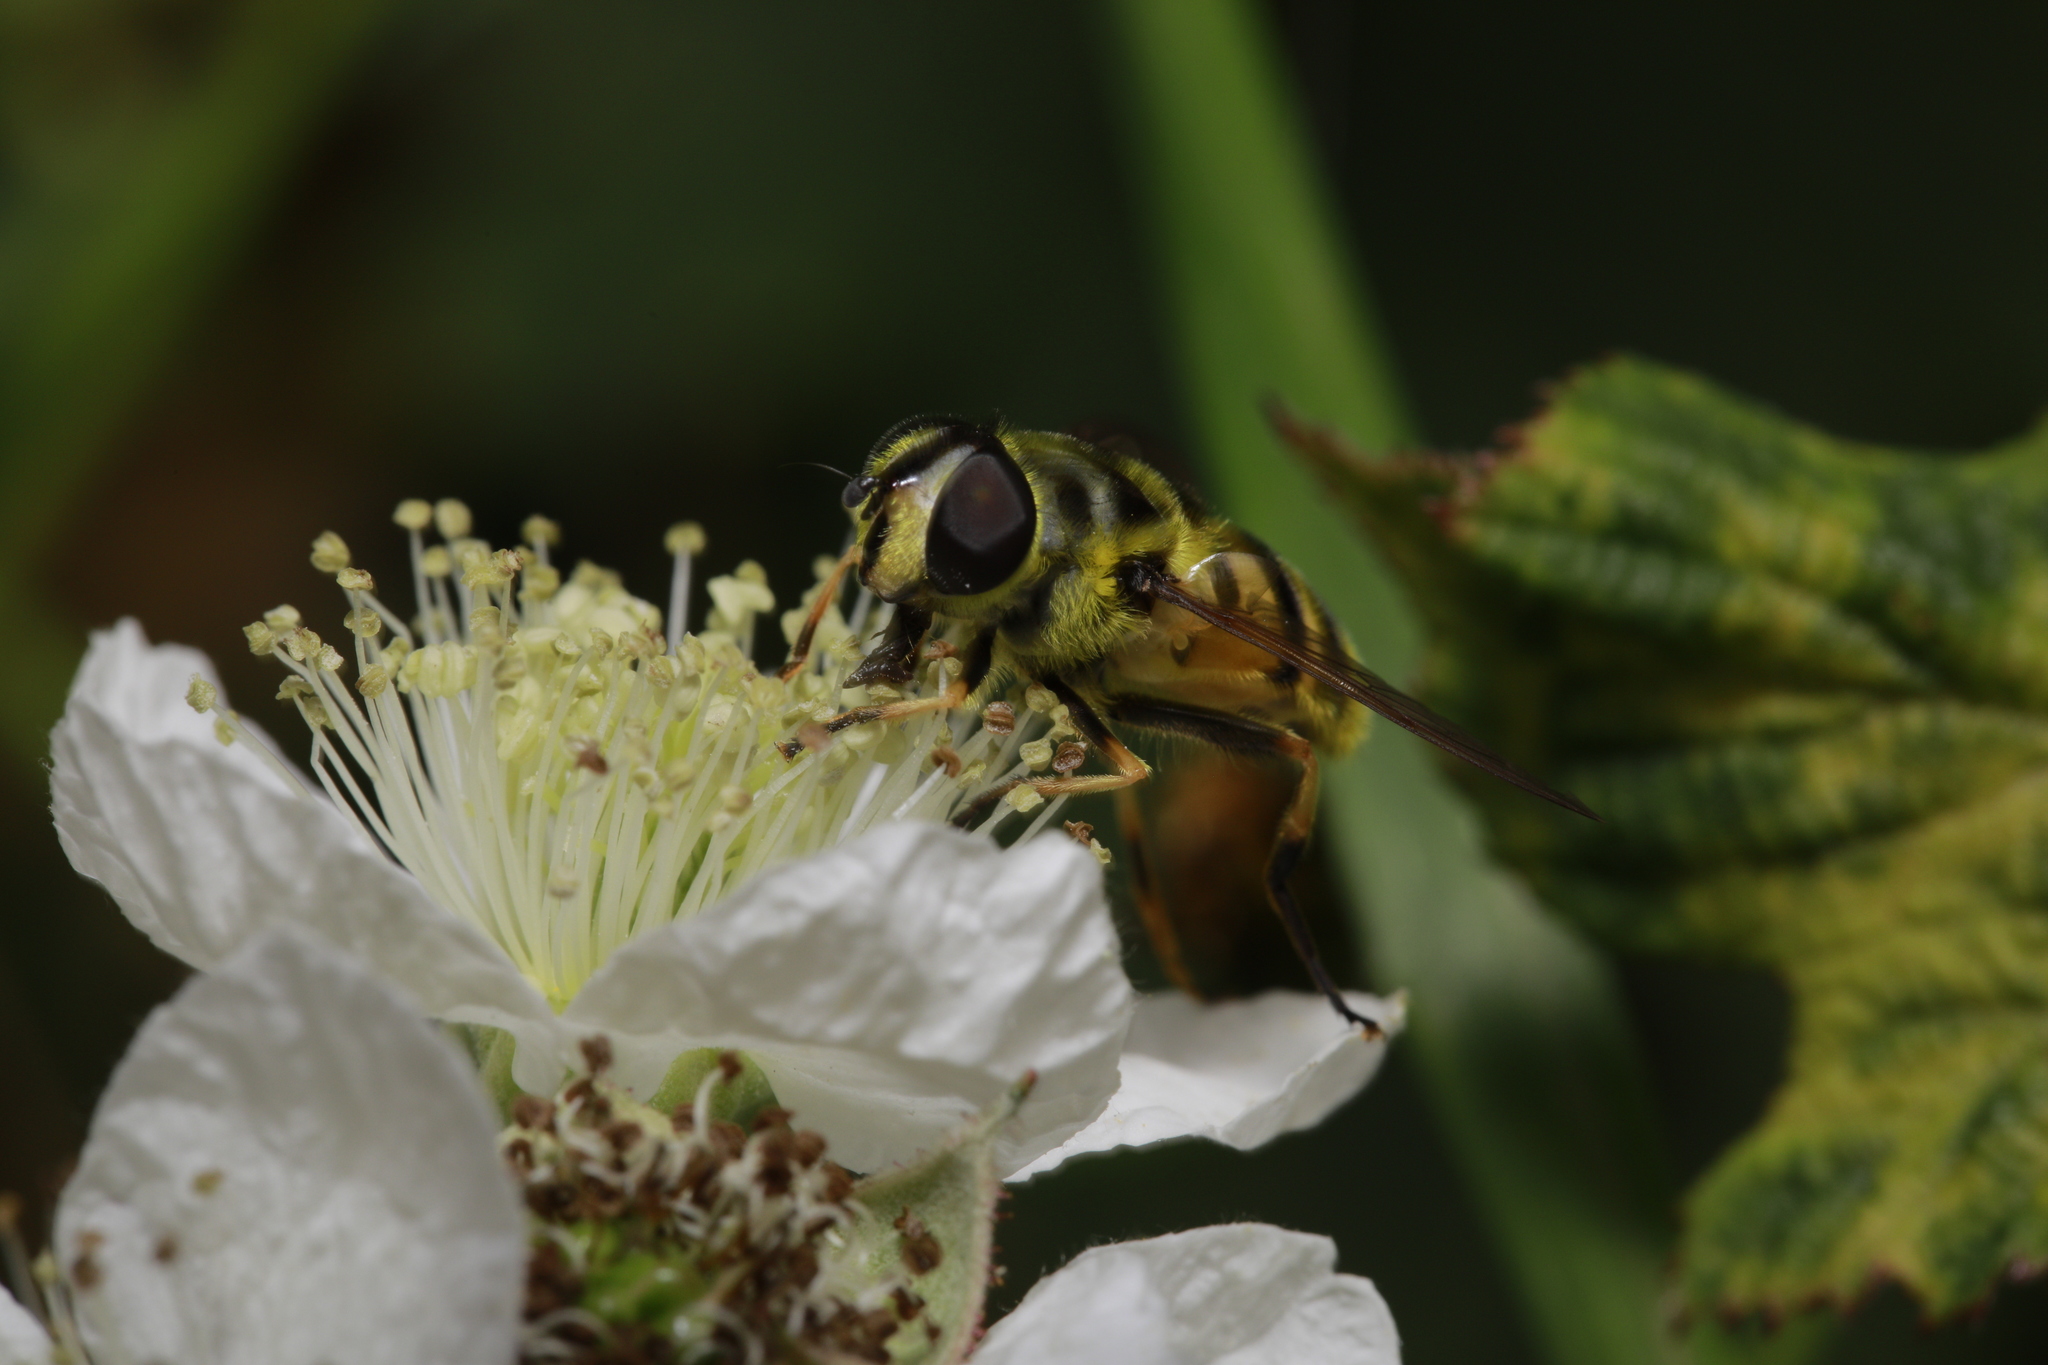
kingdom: Animalia
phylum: Arthropoda
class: Insecta
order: Diptera
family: Syrphidae
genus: Myathropa
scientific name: Myathropa florea
